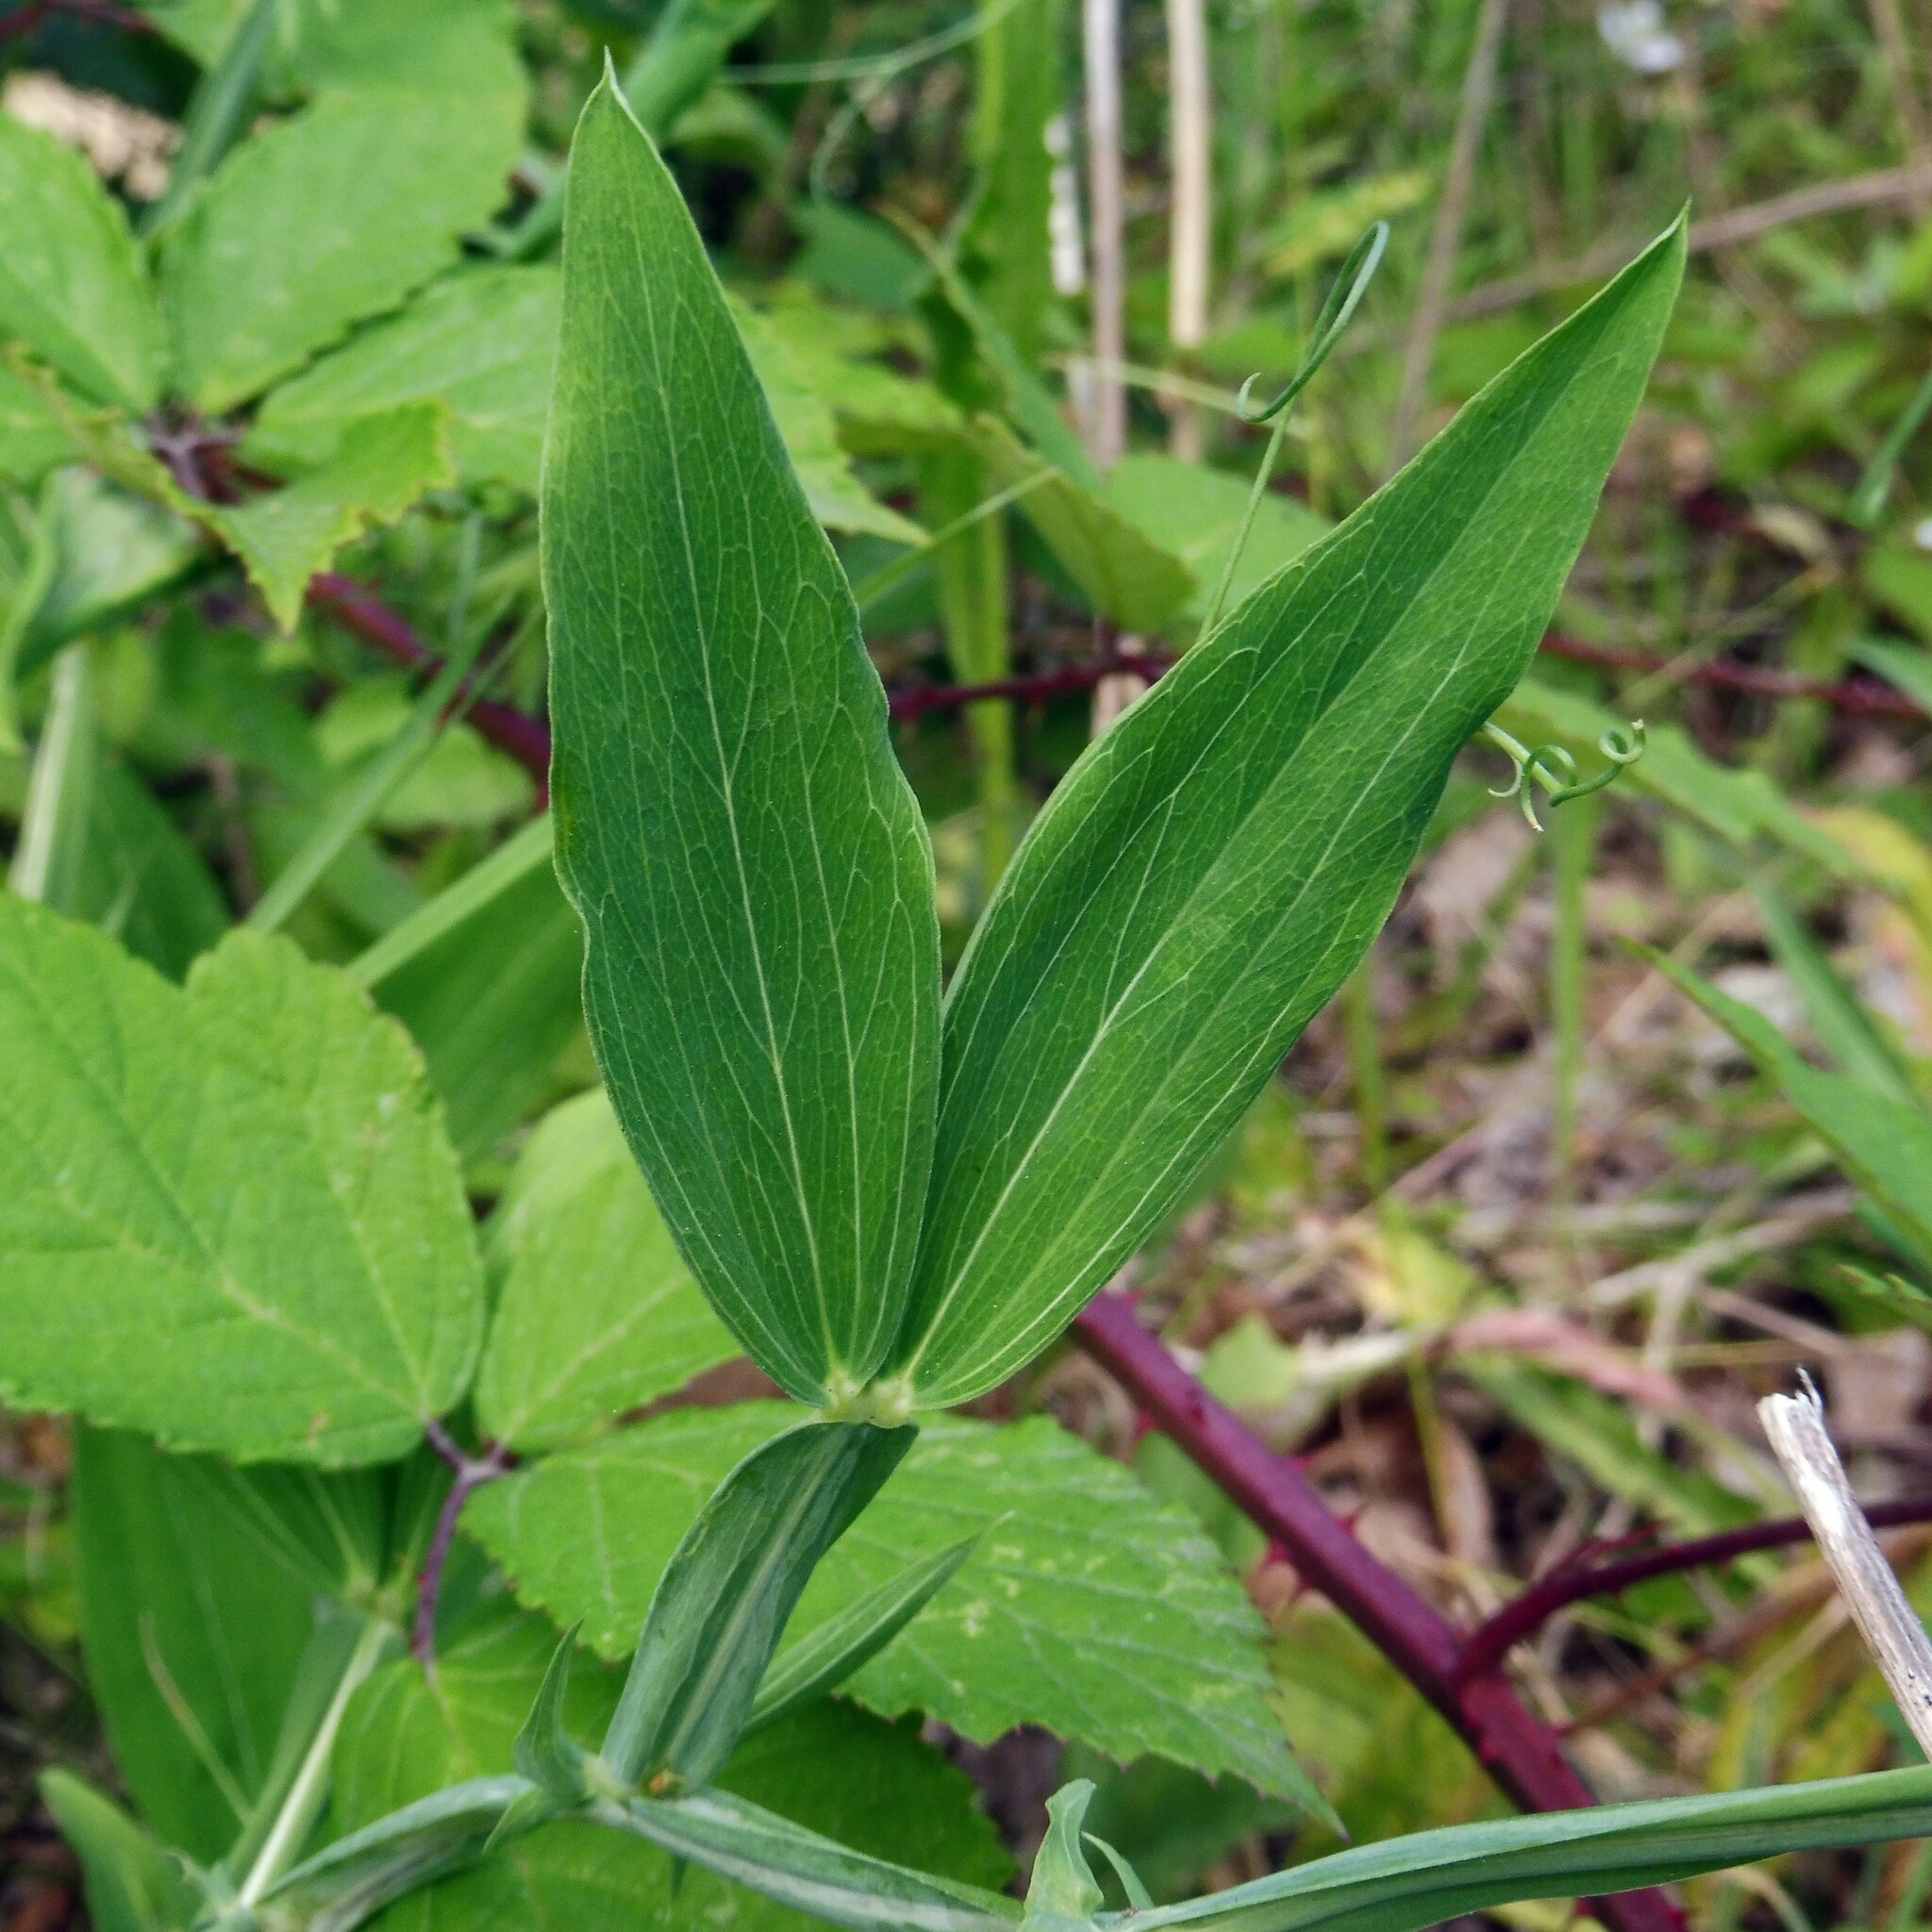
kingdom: Plantae
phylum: Tracheophyta
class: Magnoliopsida
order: Fabales
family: Fabaceae
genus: Lathyrus
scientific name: Lathyrus latifolius
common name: Perennial pea
